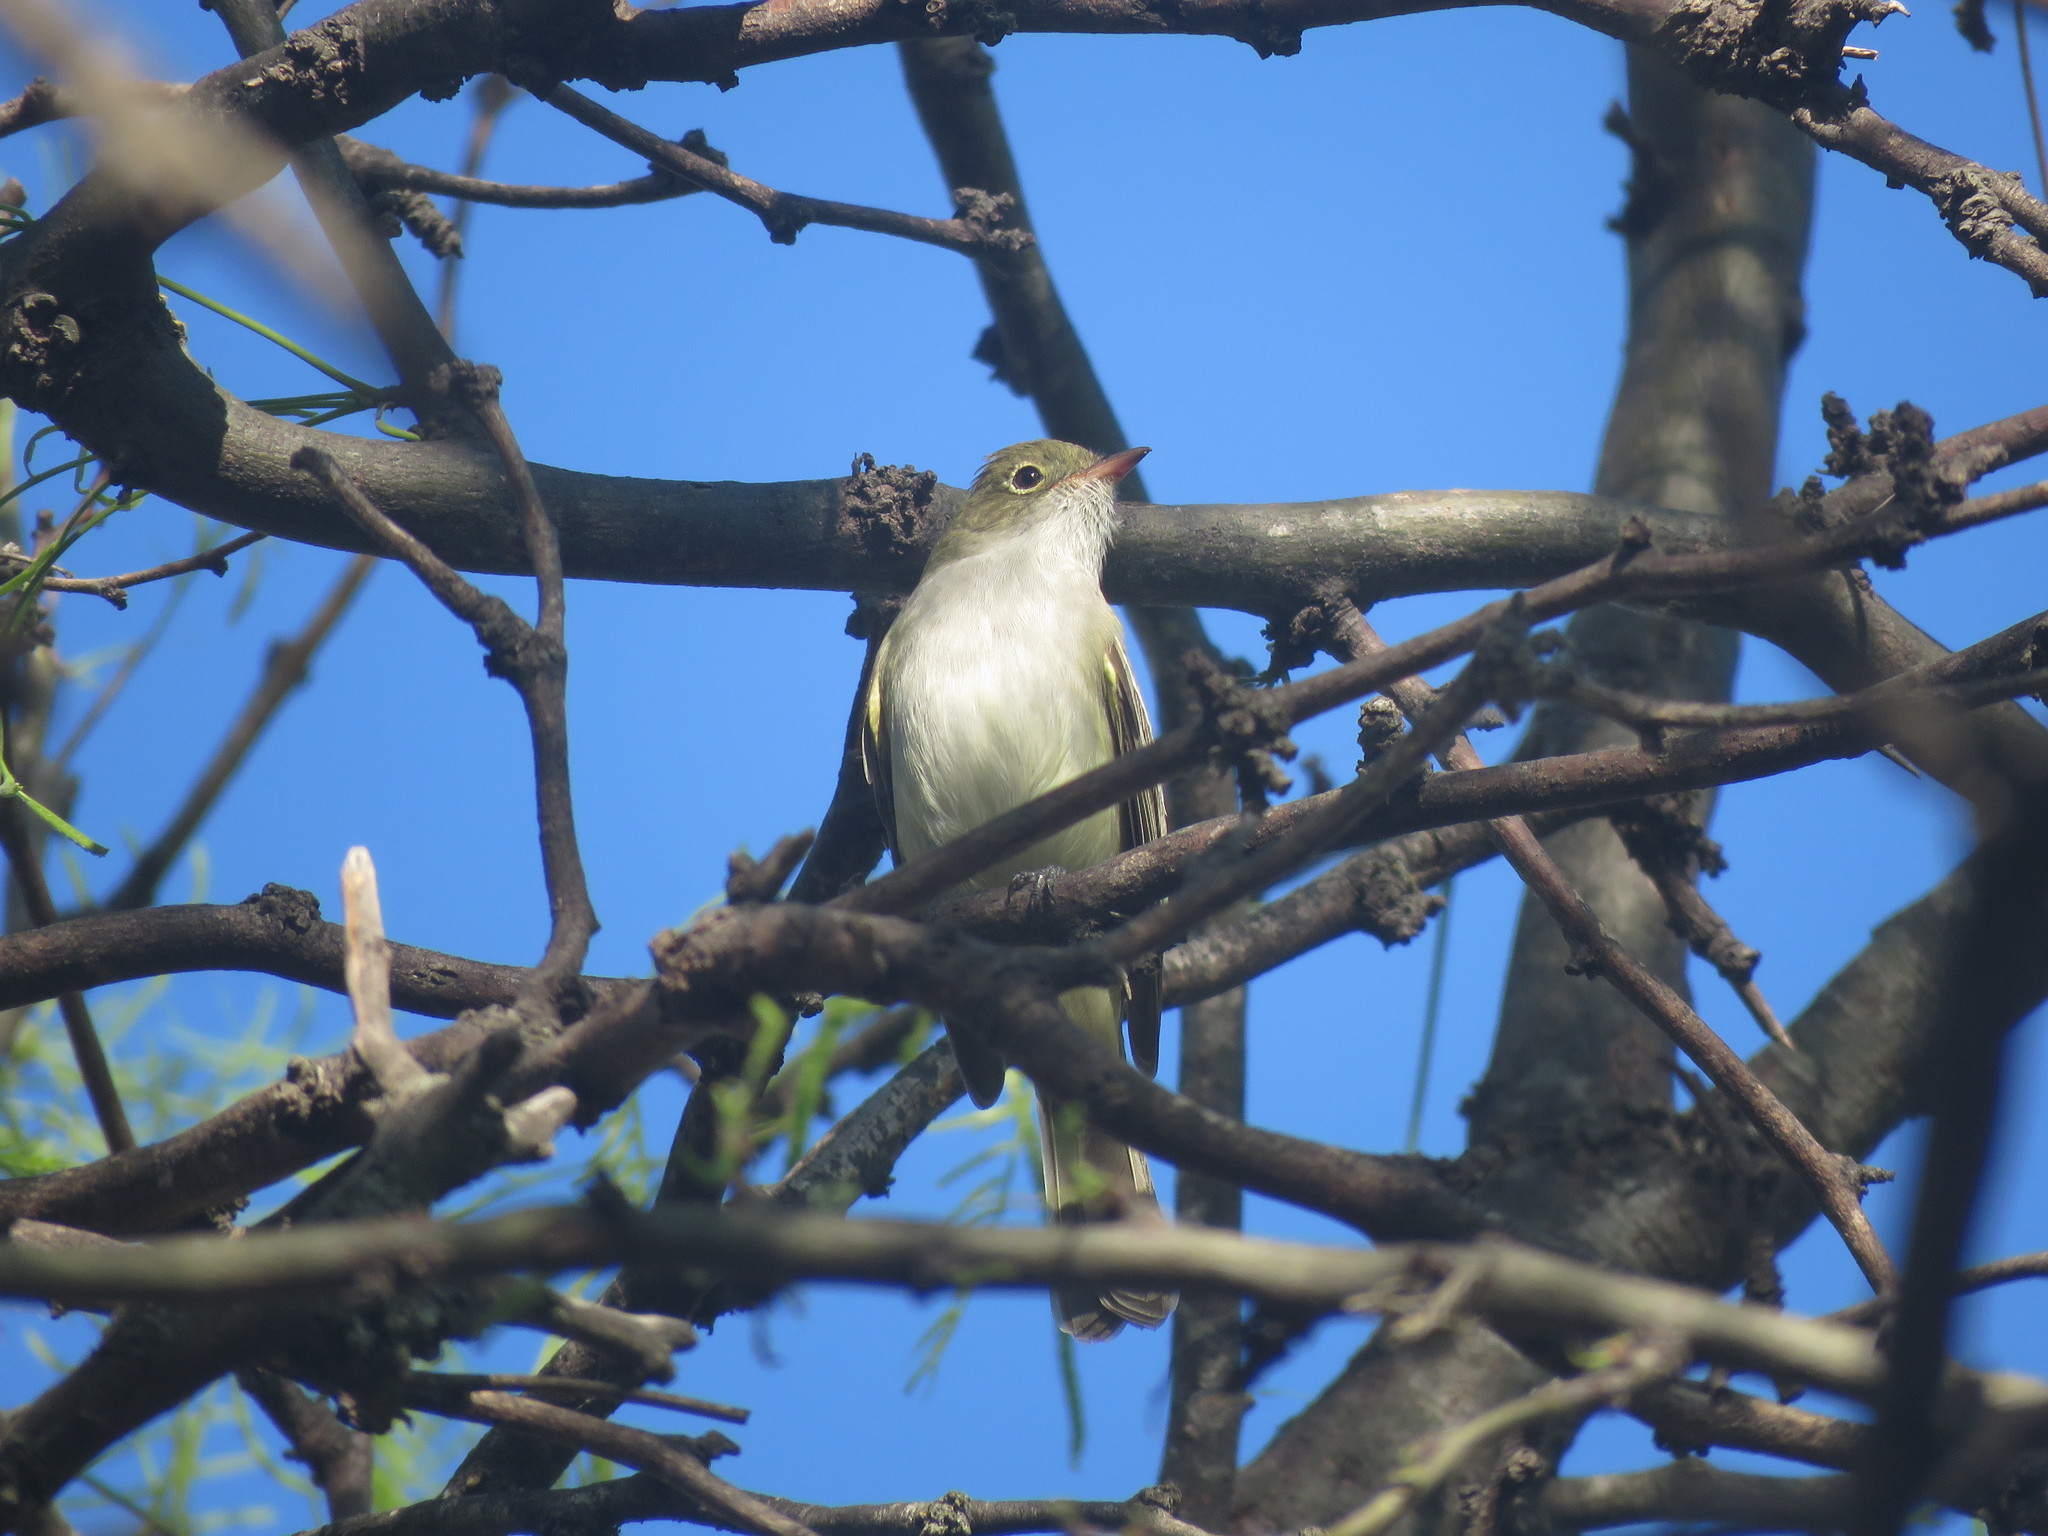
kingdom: Animalia
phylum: Chordata
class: Aves
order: Passeriformes
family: Tyrannidae
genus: Elaenia
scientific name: Elaenia parvirostris
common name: Small-billed elaenia
